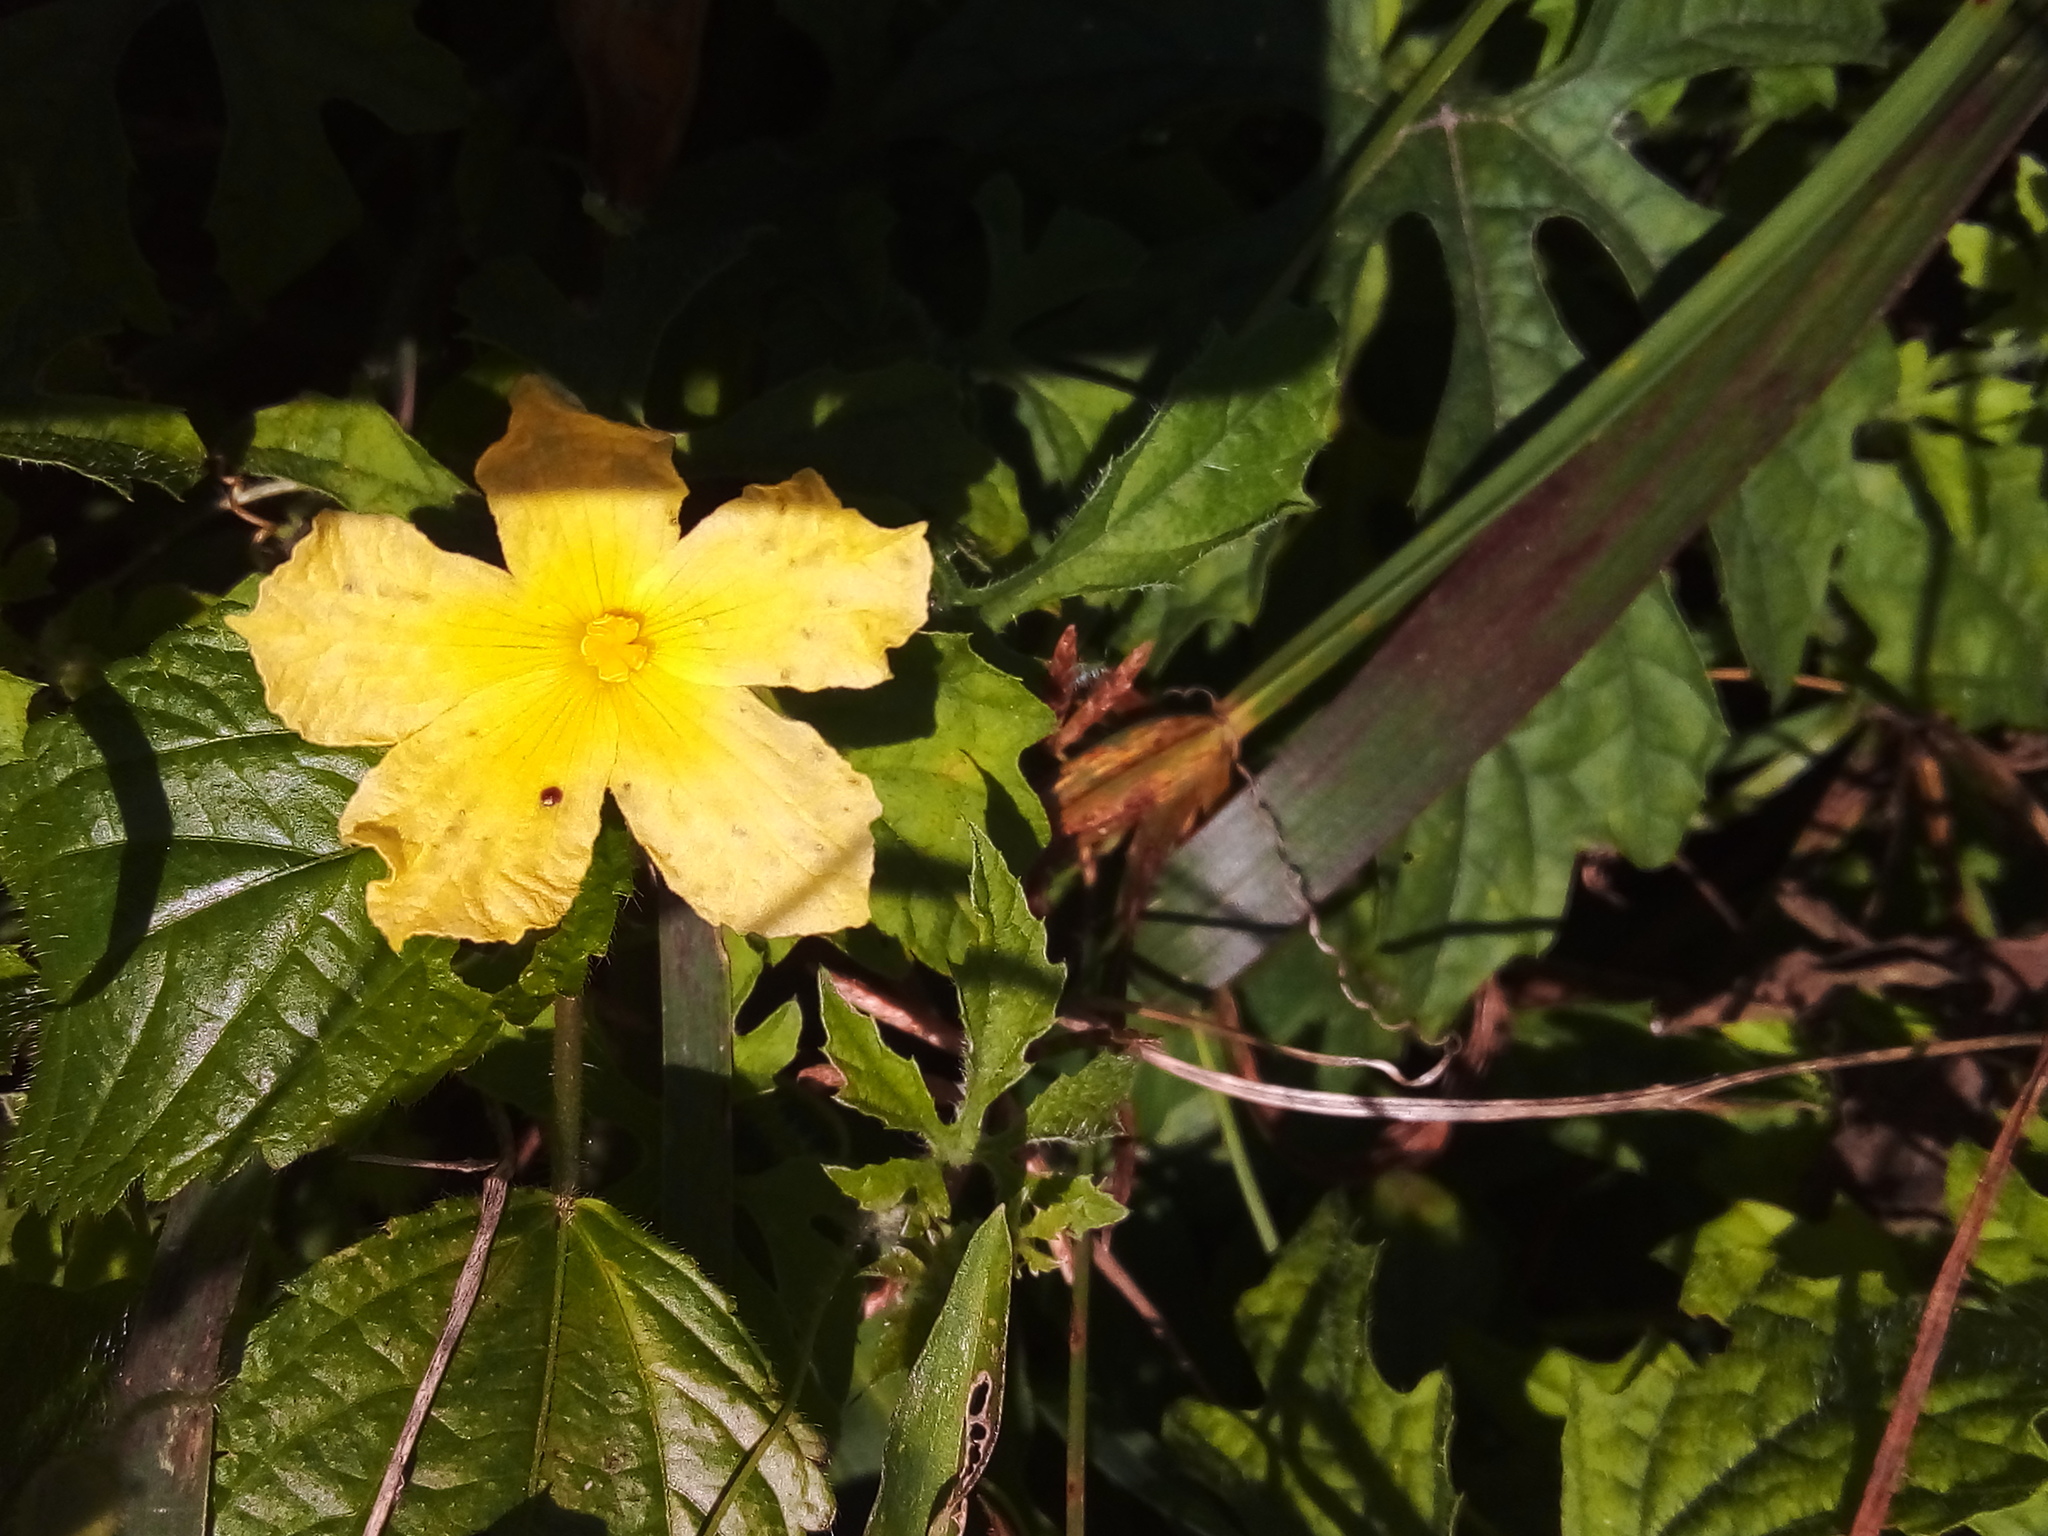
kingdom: Plantae
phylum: Tracheophyta
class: Magnoliopsida
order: Cucurbitales
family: Cucurbitaceae
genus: Momordica
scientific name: Momordica charantia
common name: Balsampear
